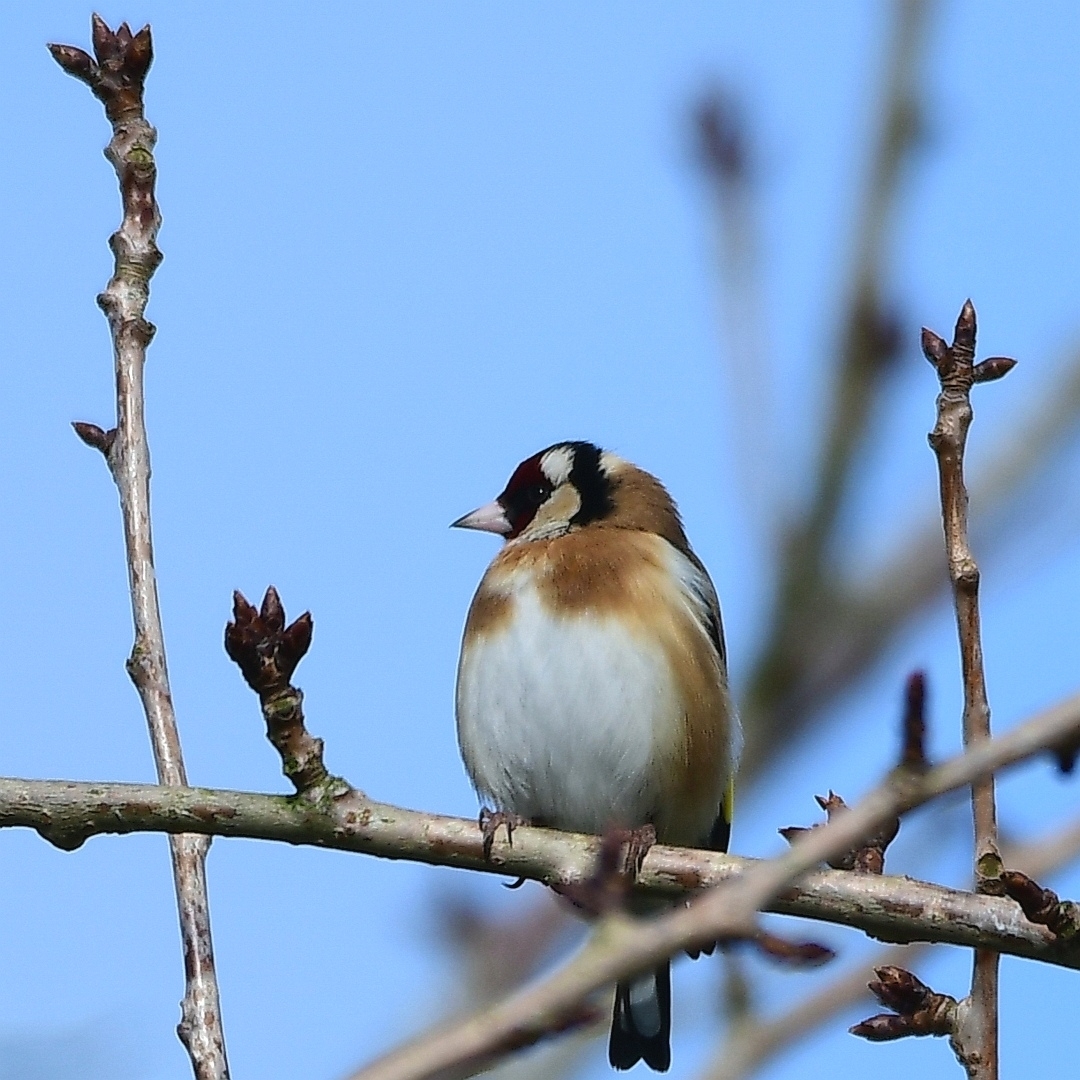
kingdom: Animalia
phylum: Chordata
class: Aves
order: Passeriformes
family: Fringillidae
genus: Carduelis
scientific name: Carduelis carduelis
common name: European goldfinch
